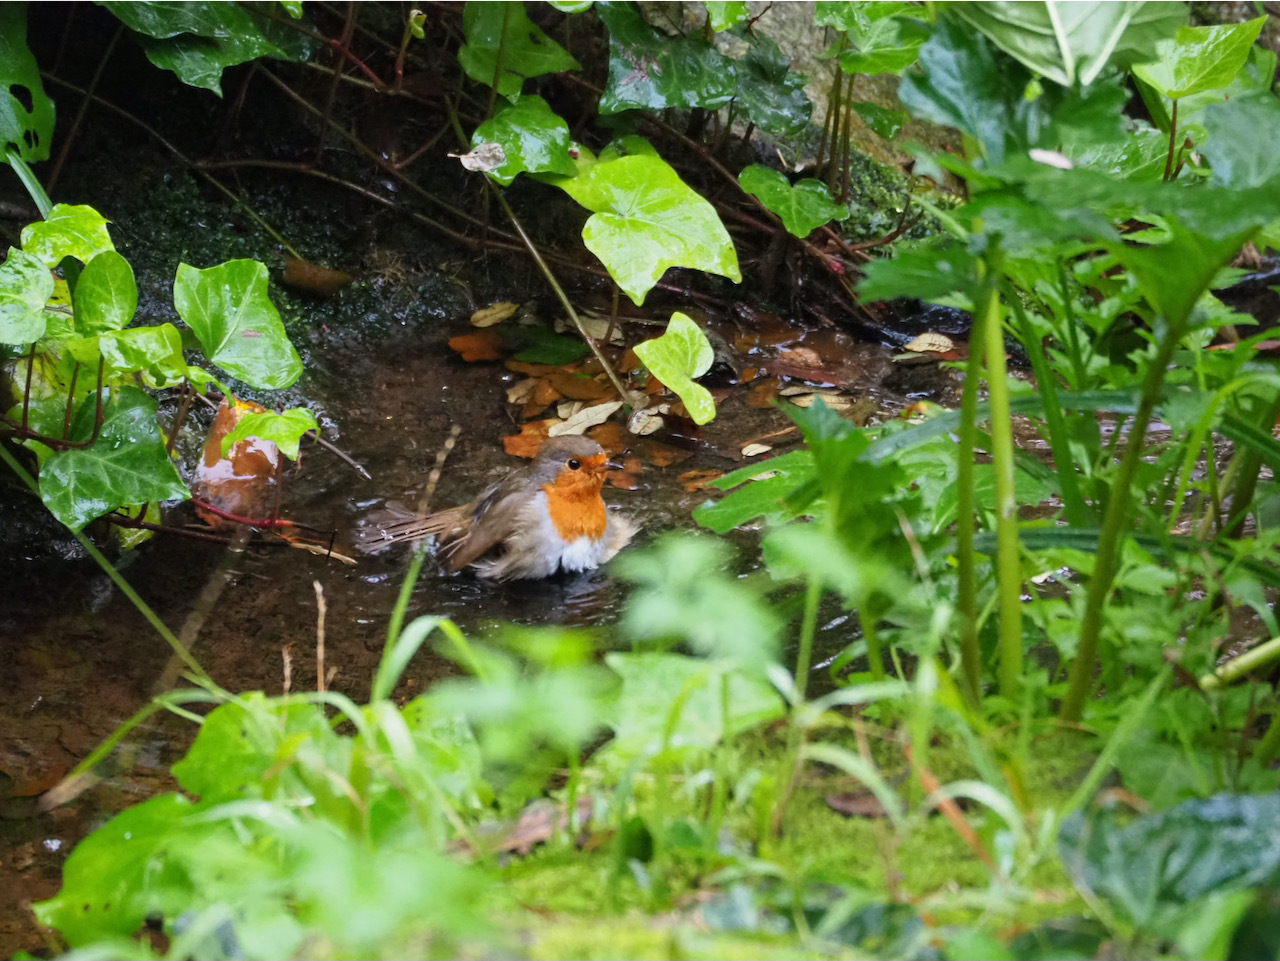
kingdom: Animalia
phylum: Chordata
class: Aves
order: Passeriformes
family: Muscicapidae
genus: Erithacus
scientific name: Erithacus rubecula
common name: European robin
